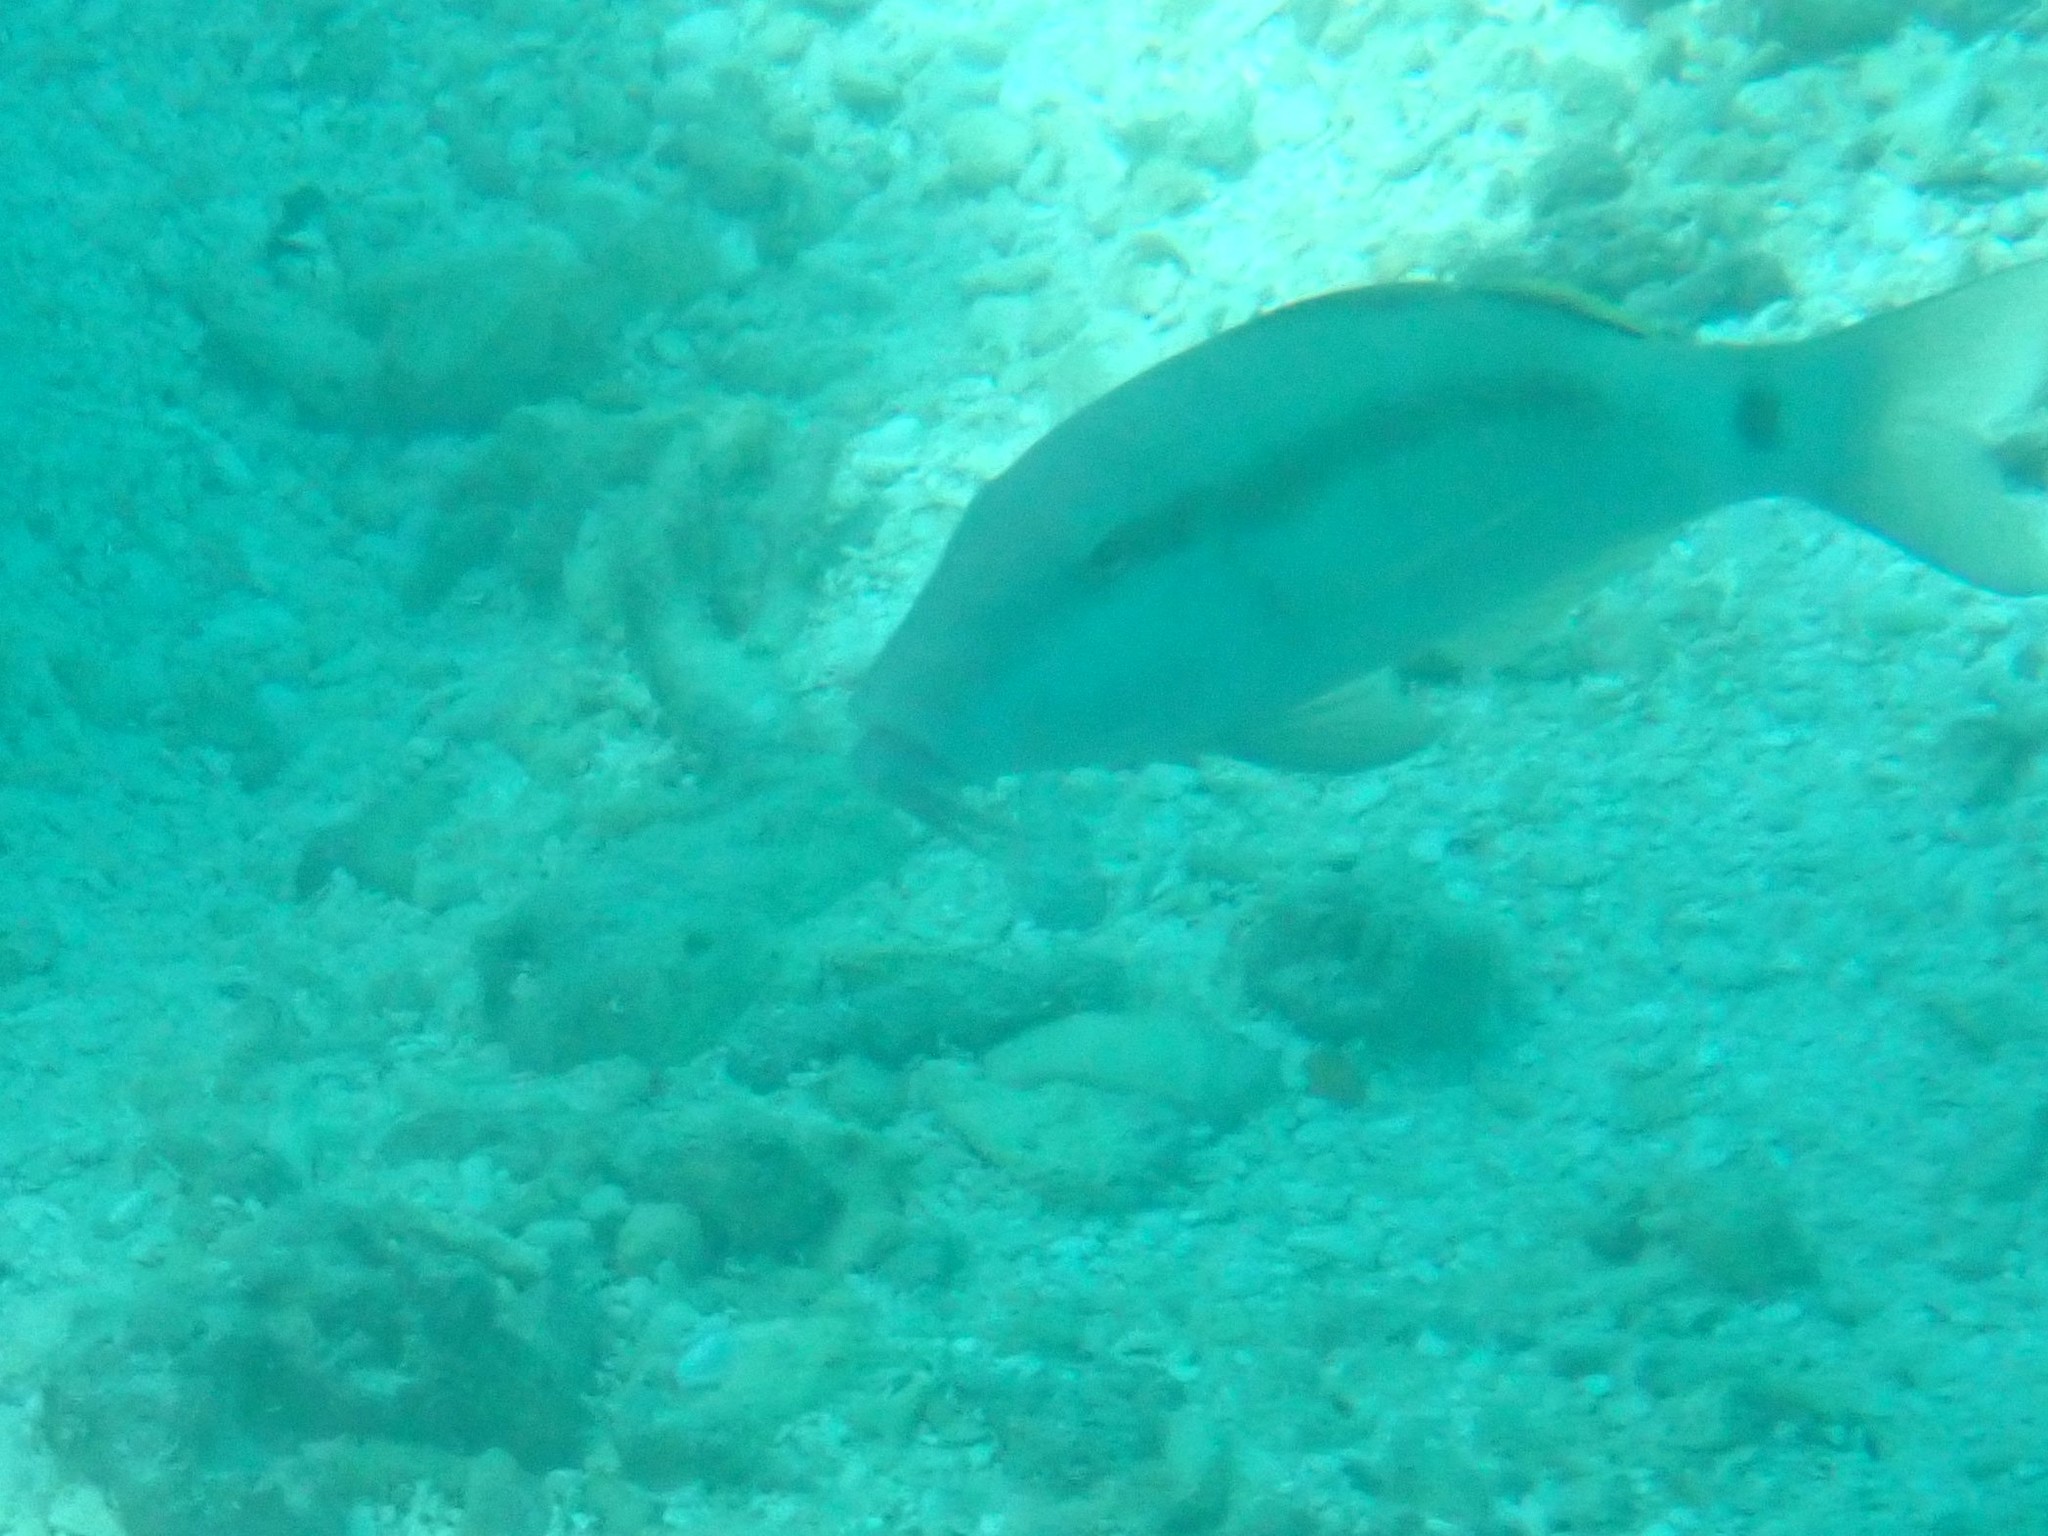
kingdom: Animalia
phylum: Chordata
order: Perciformes
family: Mullidae
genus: Parupeneus
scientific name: Parupeneus macronemus
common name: Long-barbel goatfish
